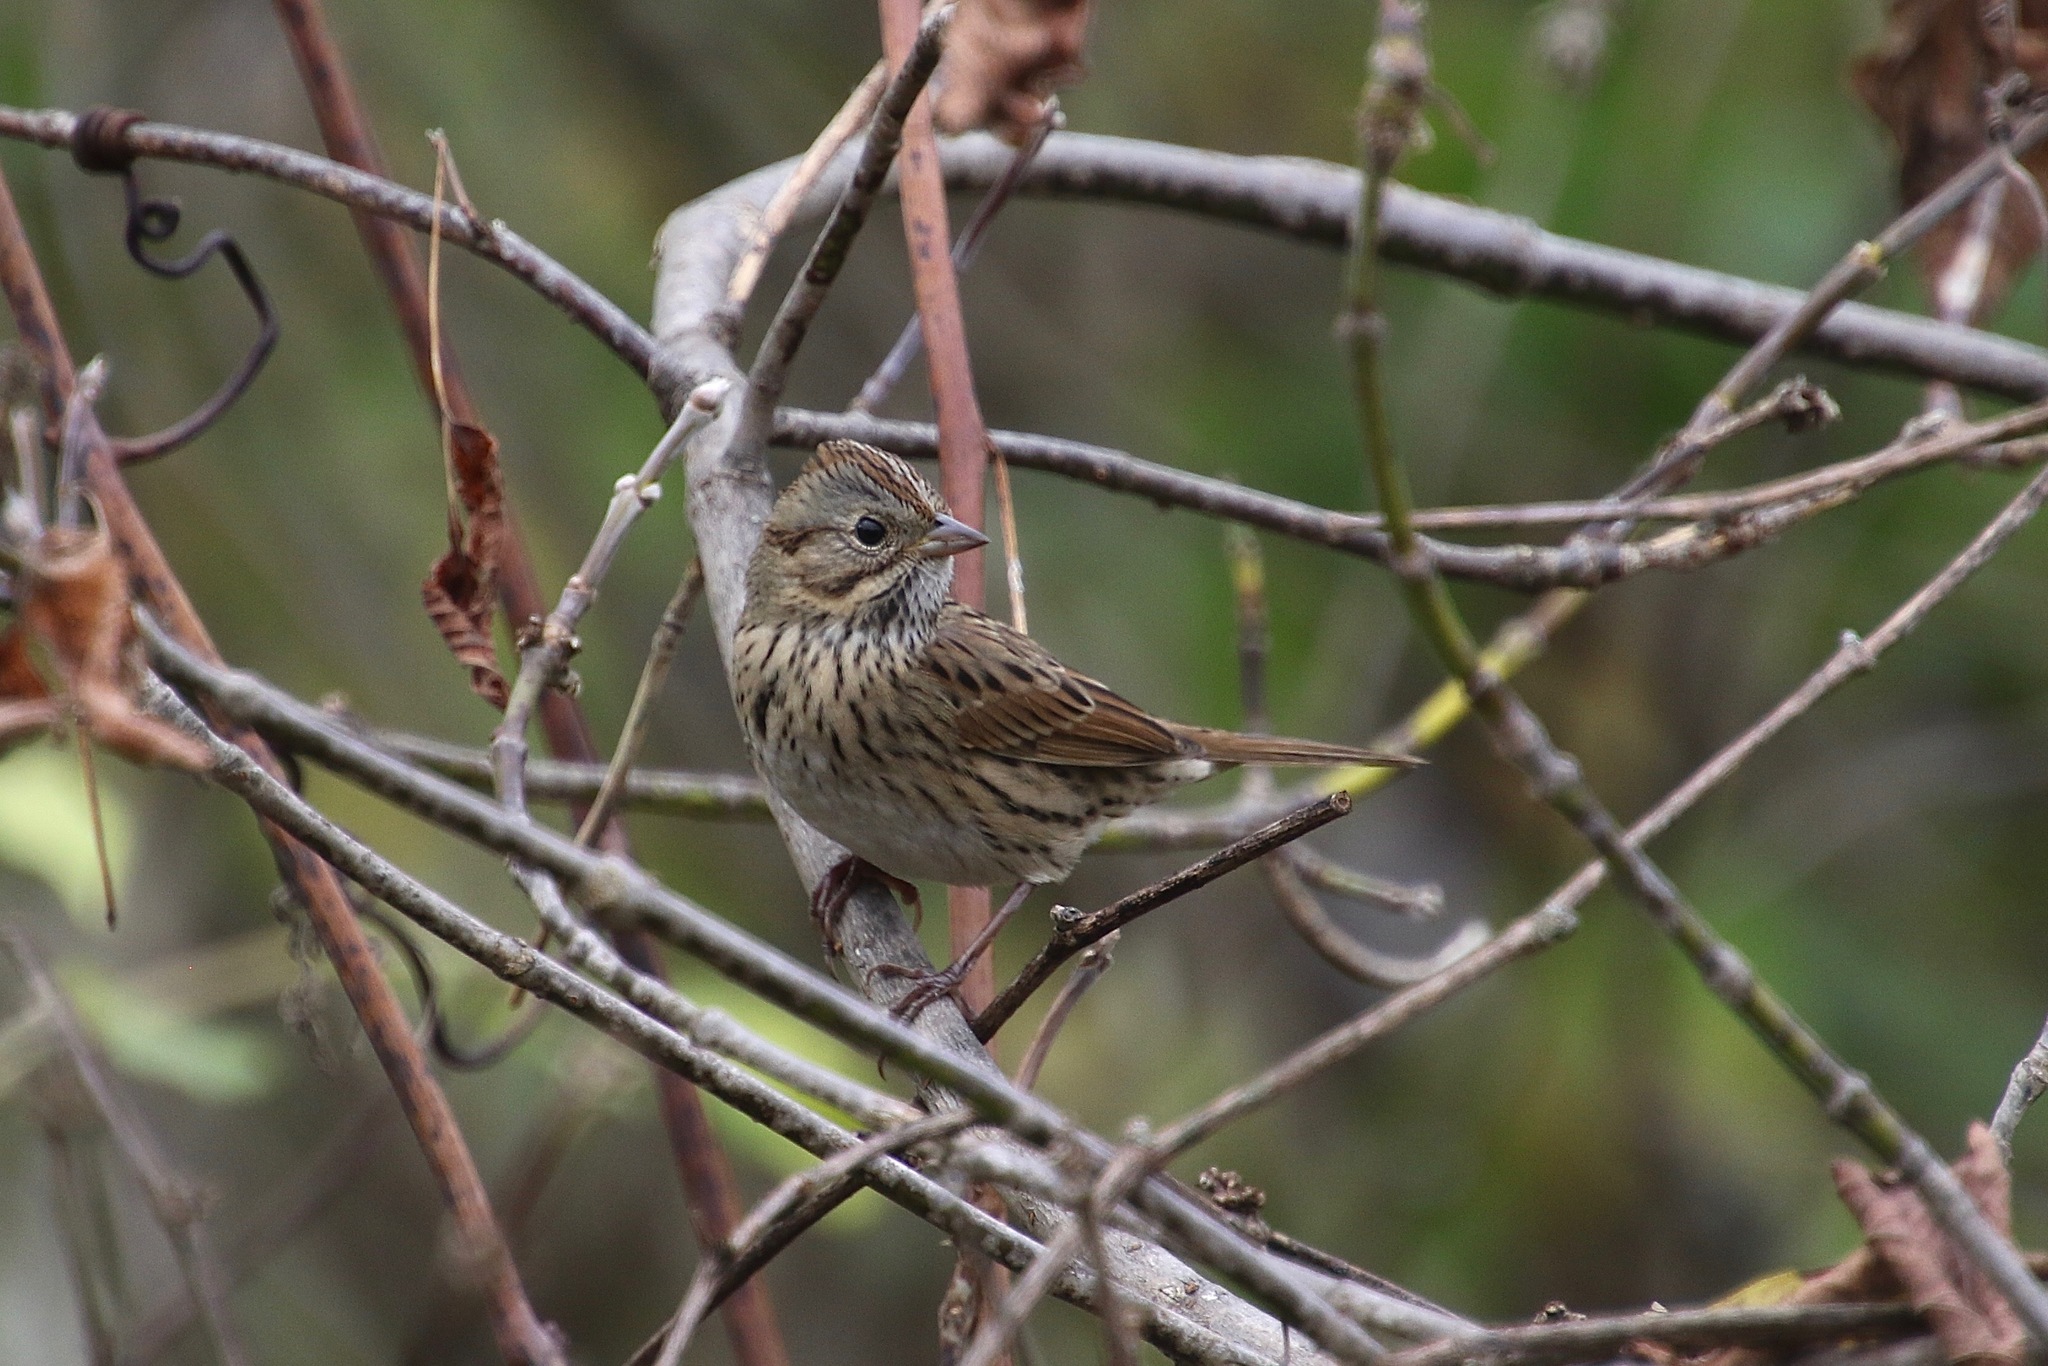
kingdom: Animalia
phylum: Chordata
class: Aves
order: Passeriformes
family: Passerellidae
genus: Melospiza
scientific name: Melospiza lincolnii
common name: Lincoln's sparrow
